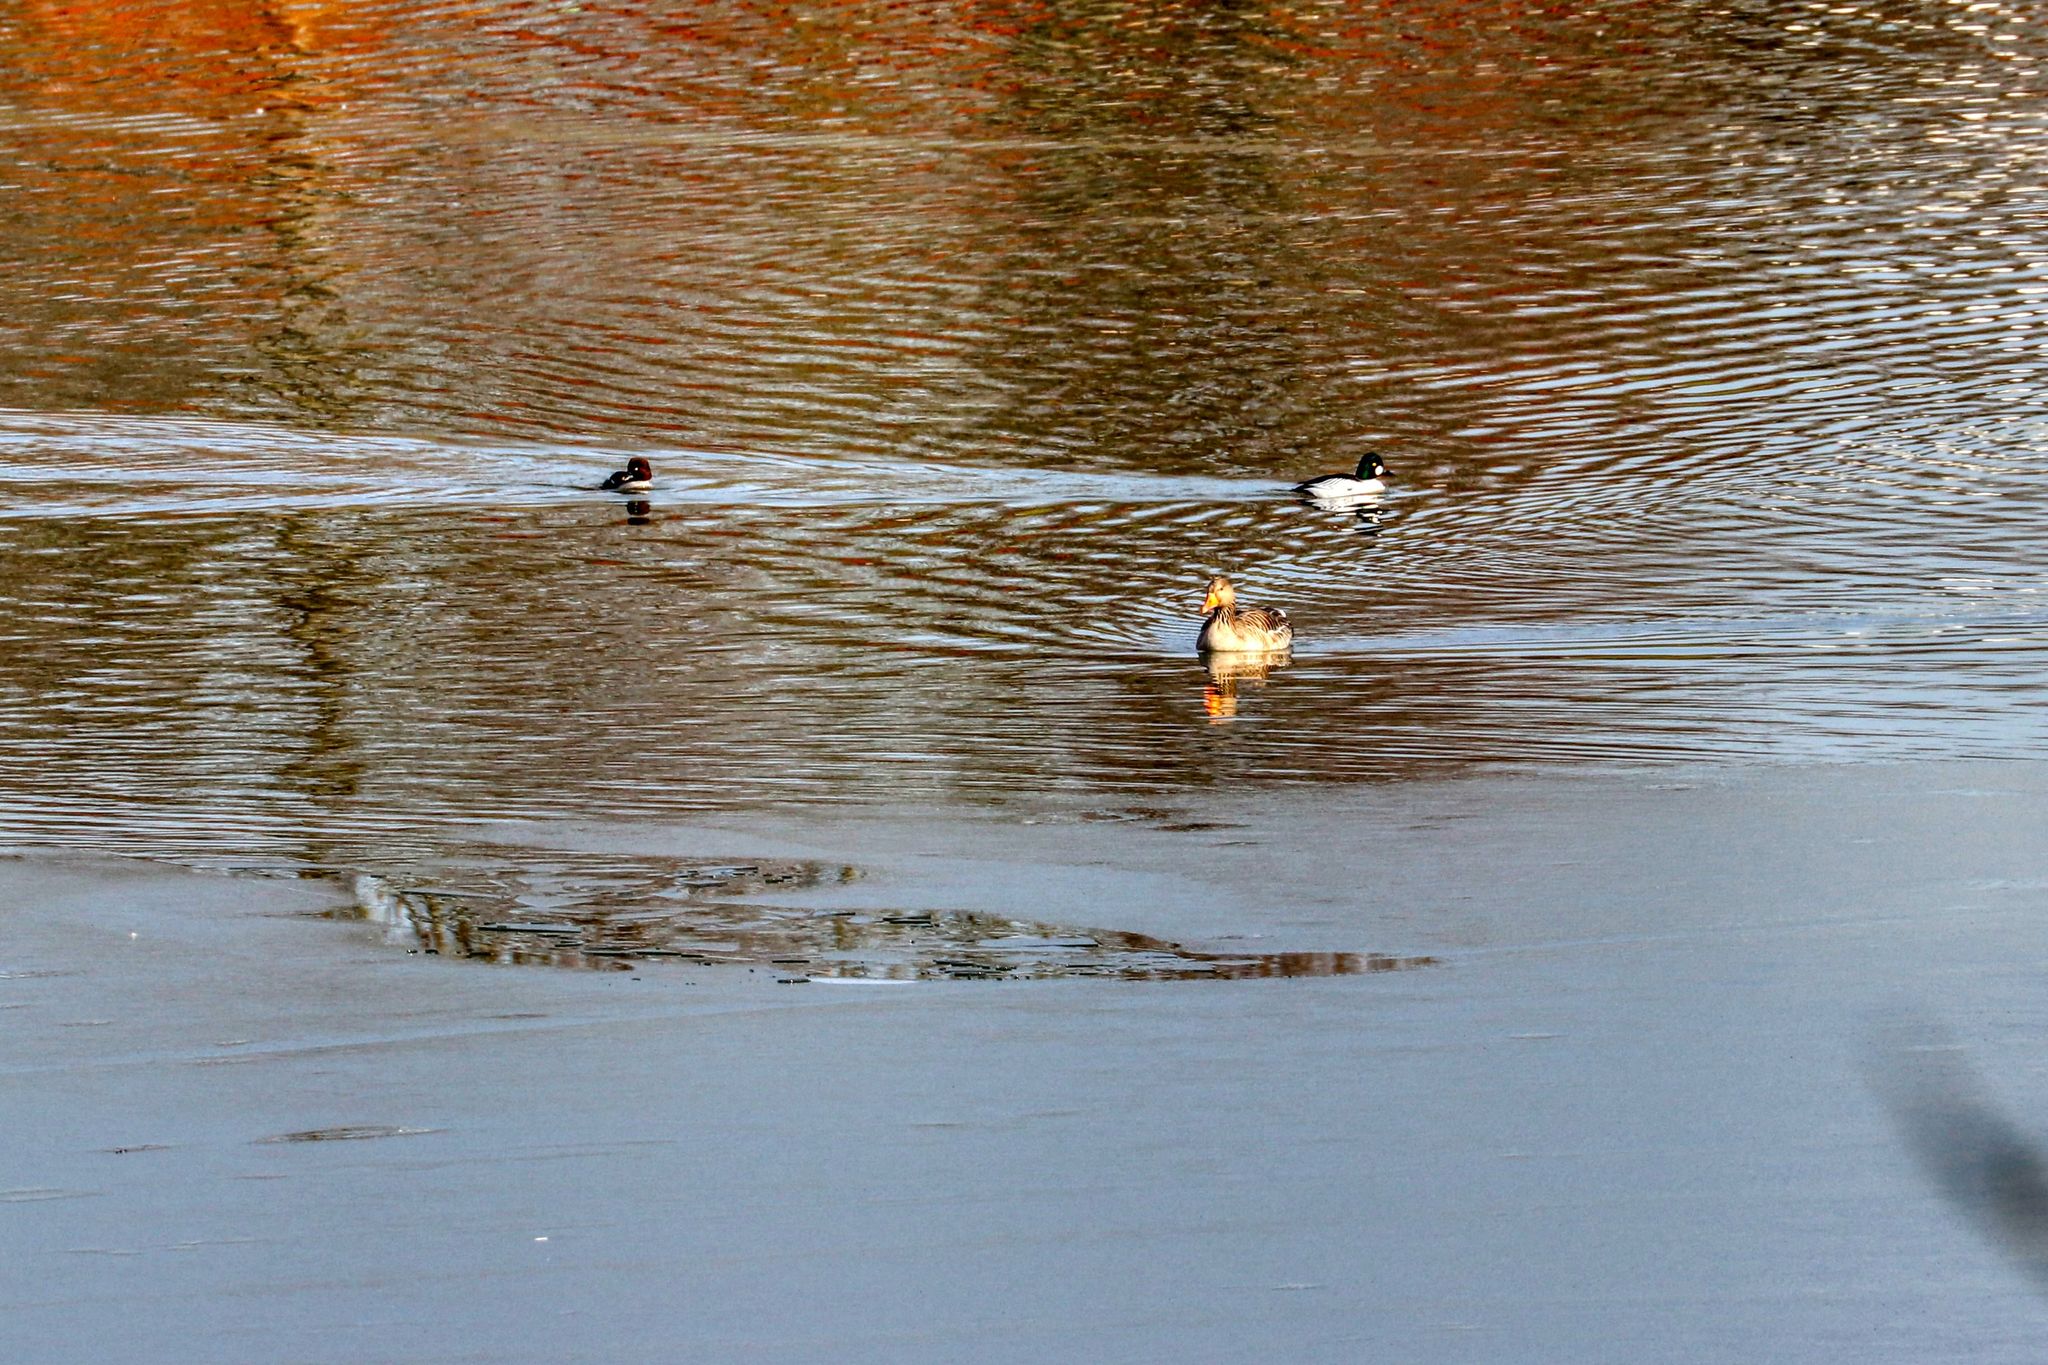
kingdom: Animalia
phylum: Chordata
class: Aves
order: Anseriformes
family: Anatidae
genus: Bucephala
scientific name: Bucephala clangula
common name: Common goldeneye
